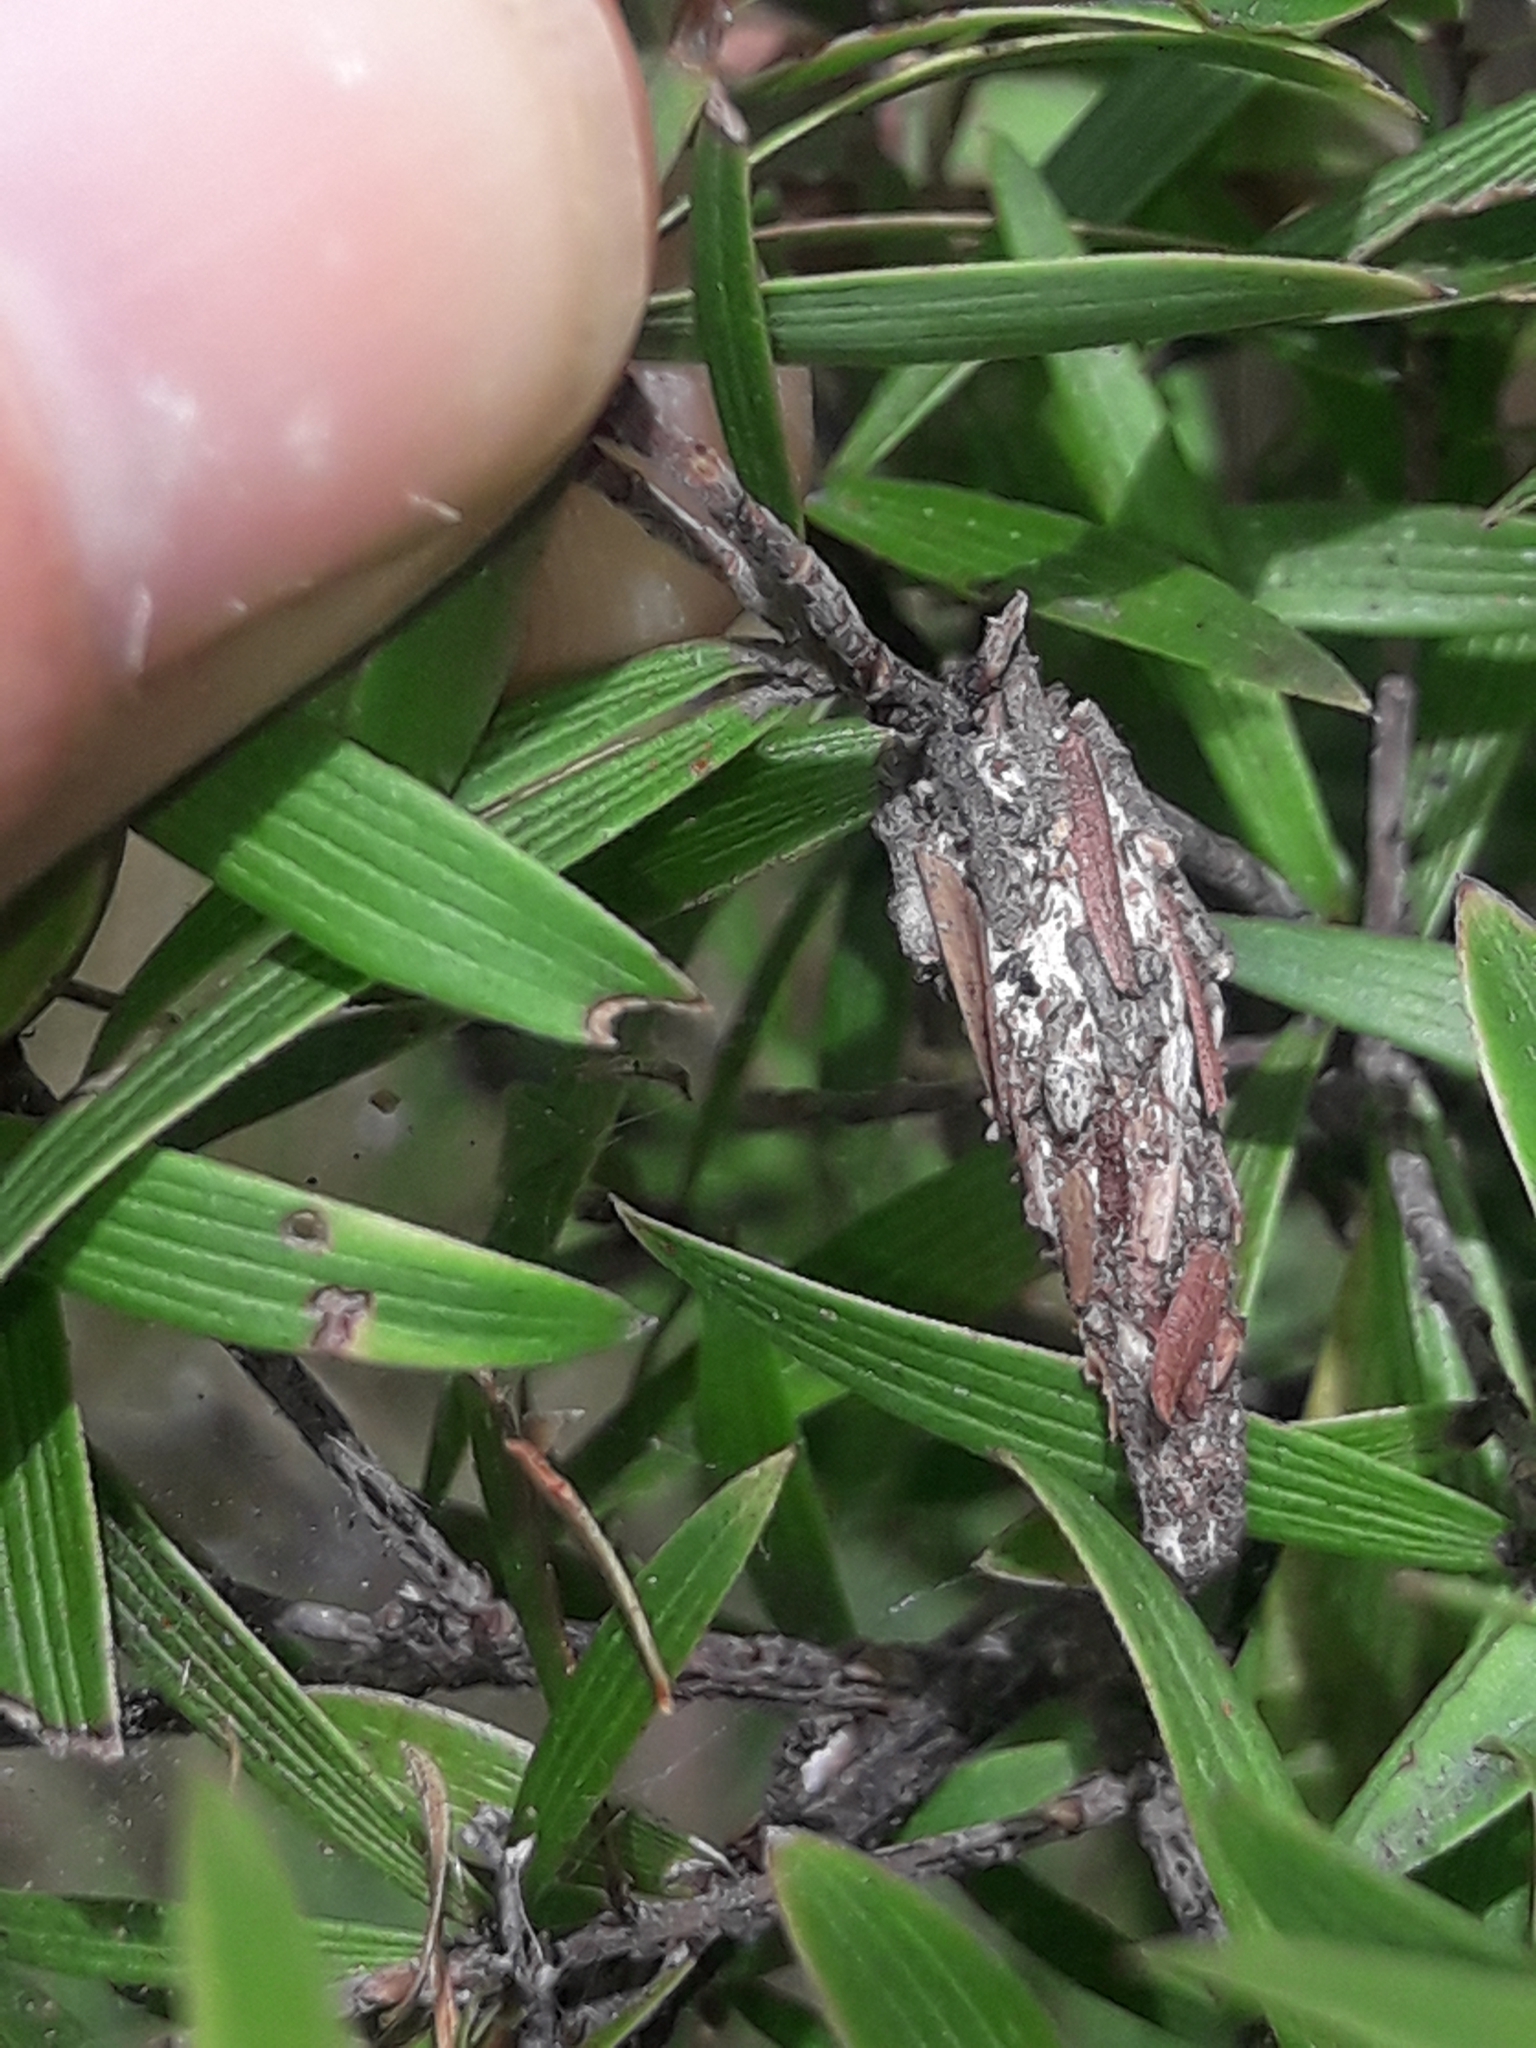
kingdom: Animalia
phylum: Arthropoda
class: Insecta
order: Lepidoptera
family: Psychidae
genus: Liothula
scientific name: Liothula omnivora
